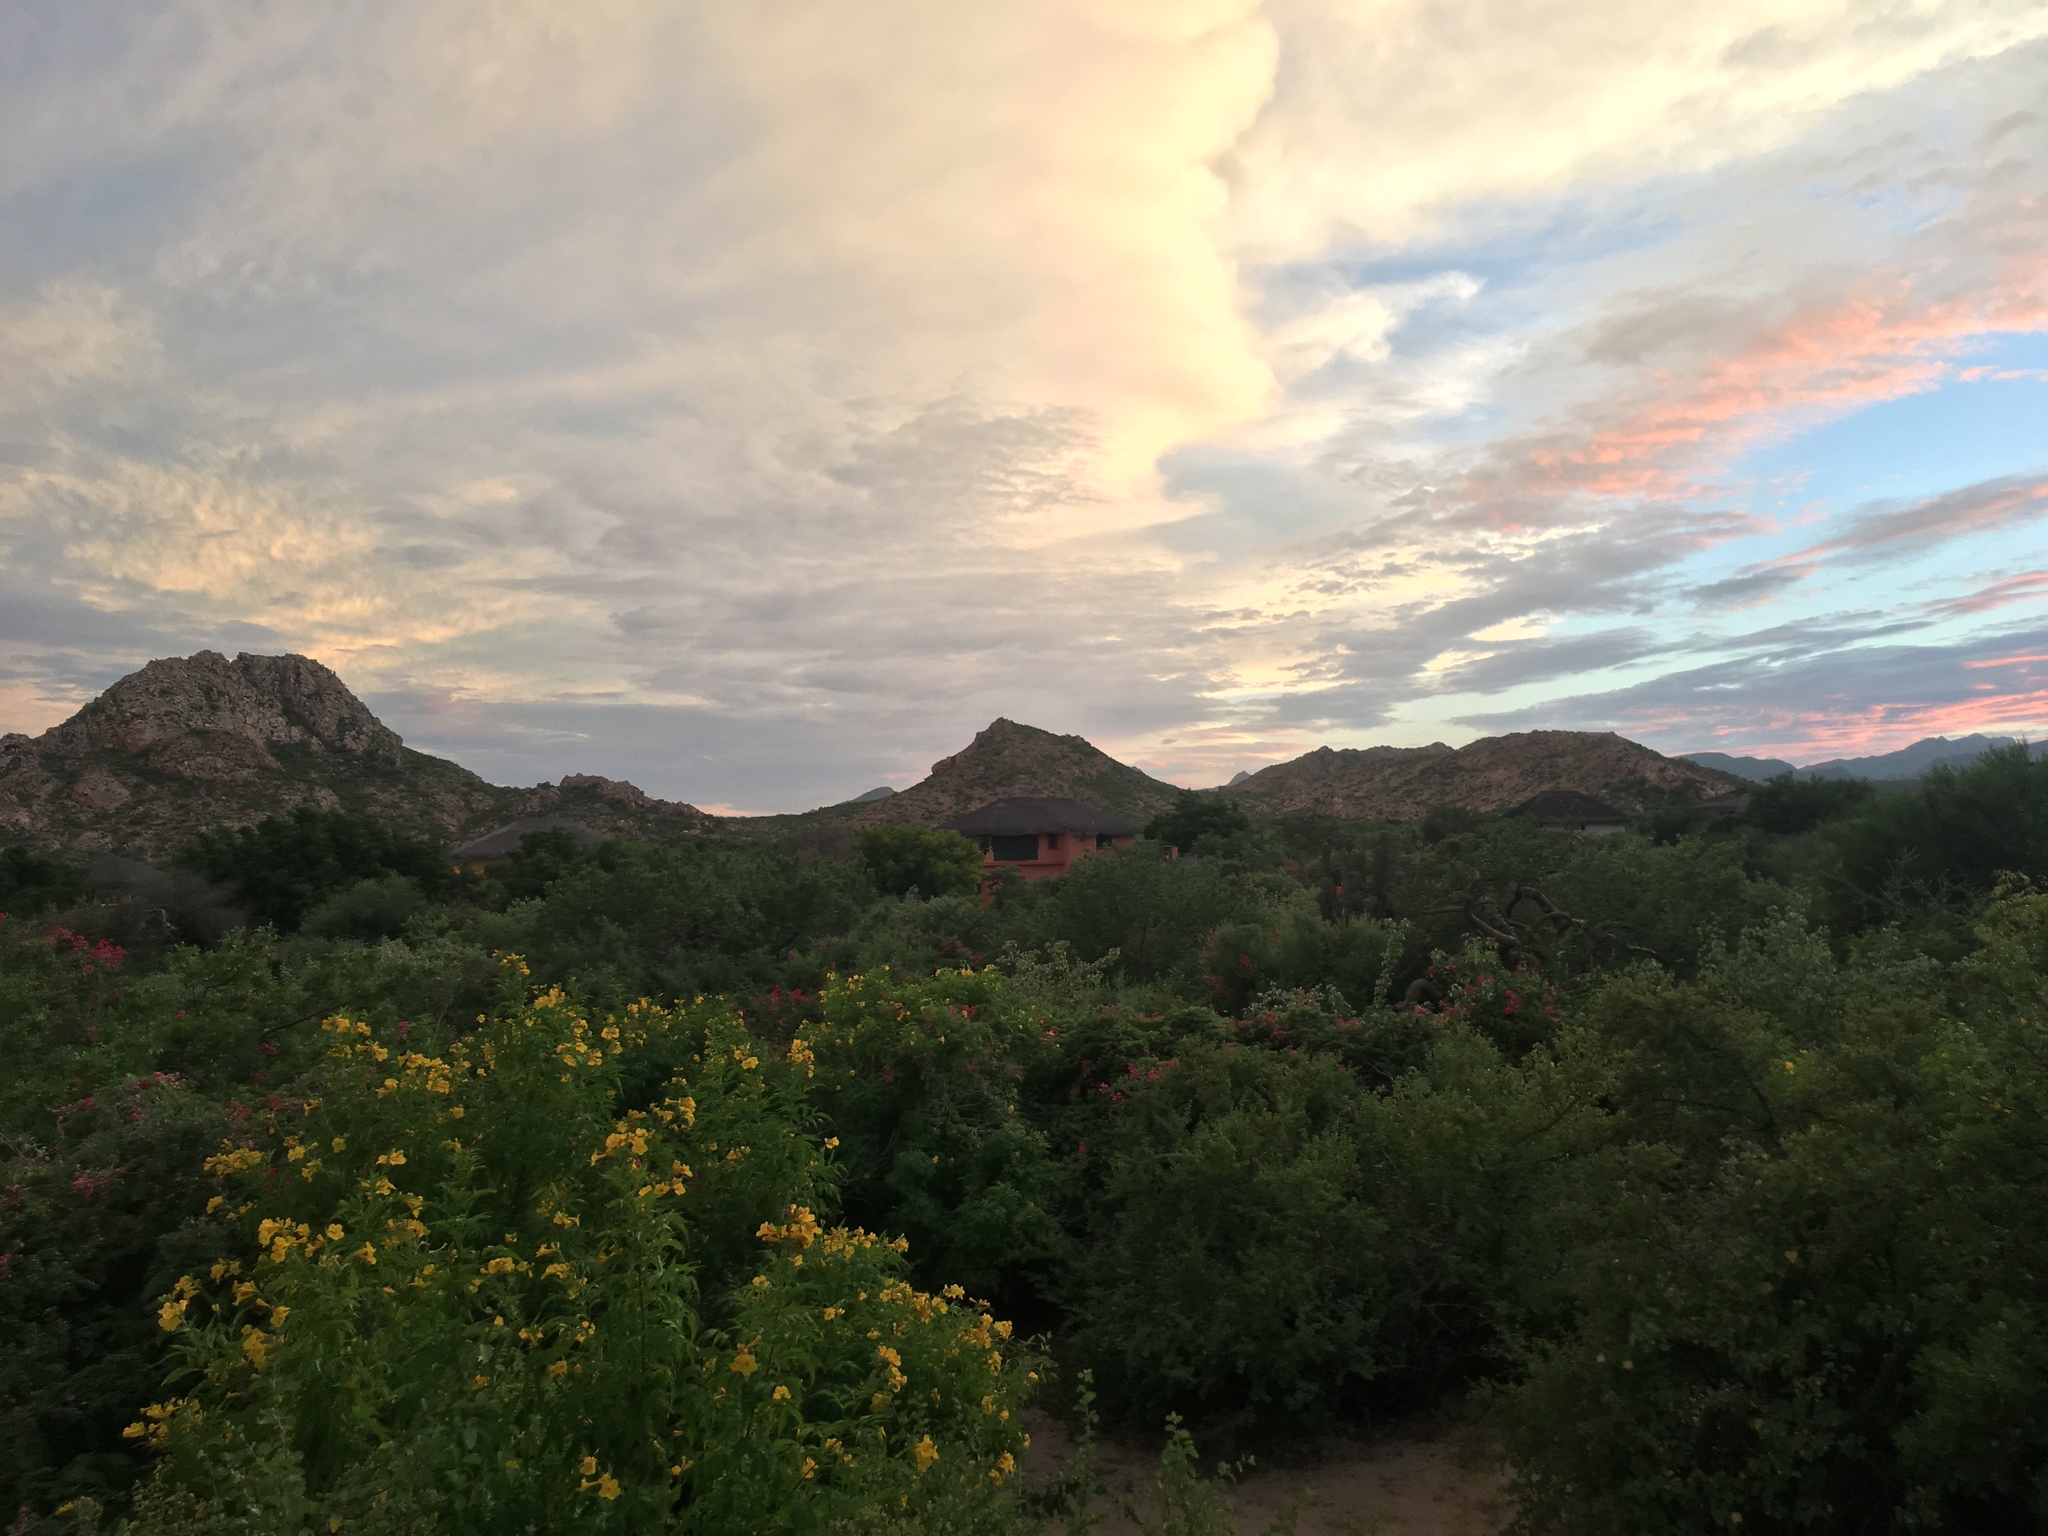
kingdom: Plantae
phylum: Tracheophyta
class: Magnoliopsida
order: Lamiales
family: Bignoniaceae
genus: Tecoma
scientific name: Tecoma stans
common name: Yellow trumpetbush
